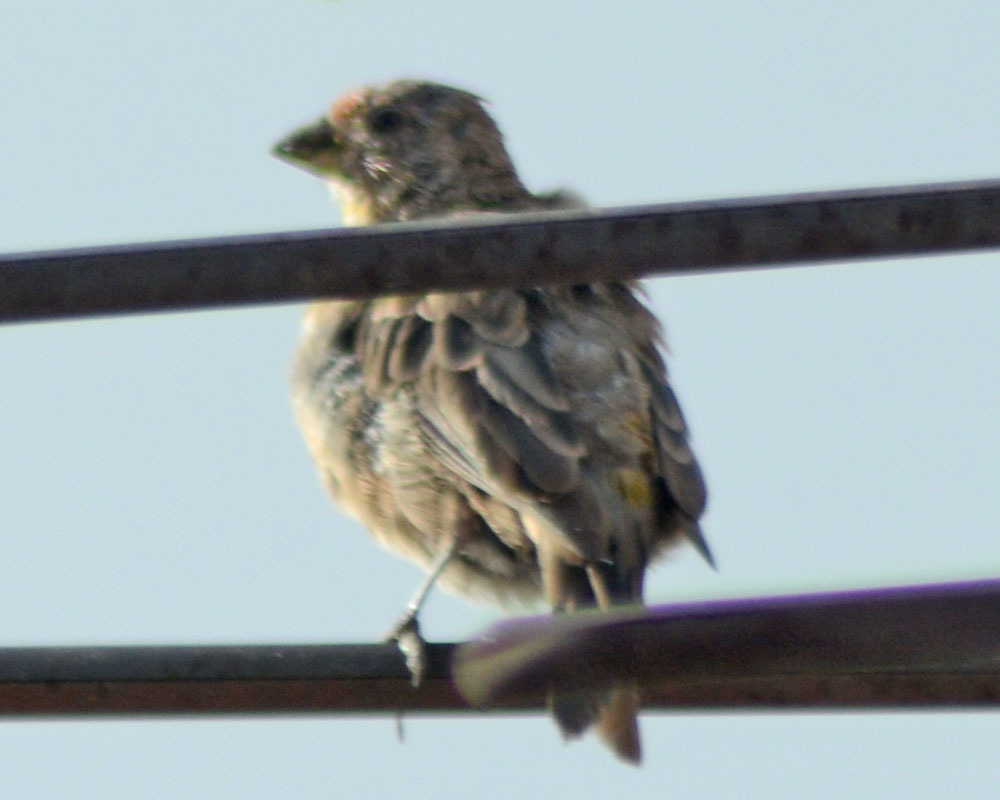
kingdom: Animalia
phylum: Chordata
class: Aves
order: Passeriformes
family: Fringillidae
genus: Haemorhous
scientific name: Haemorhous mexicanus
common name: House finch
